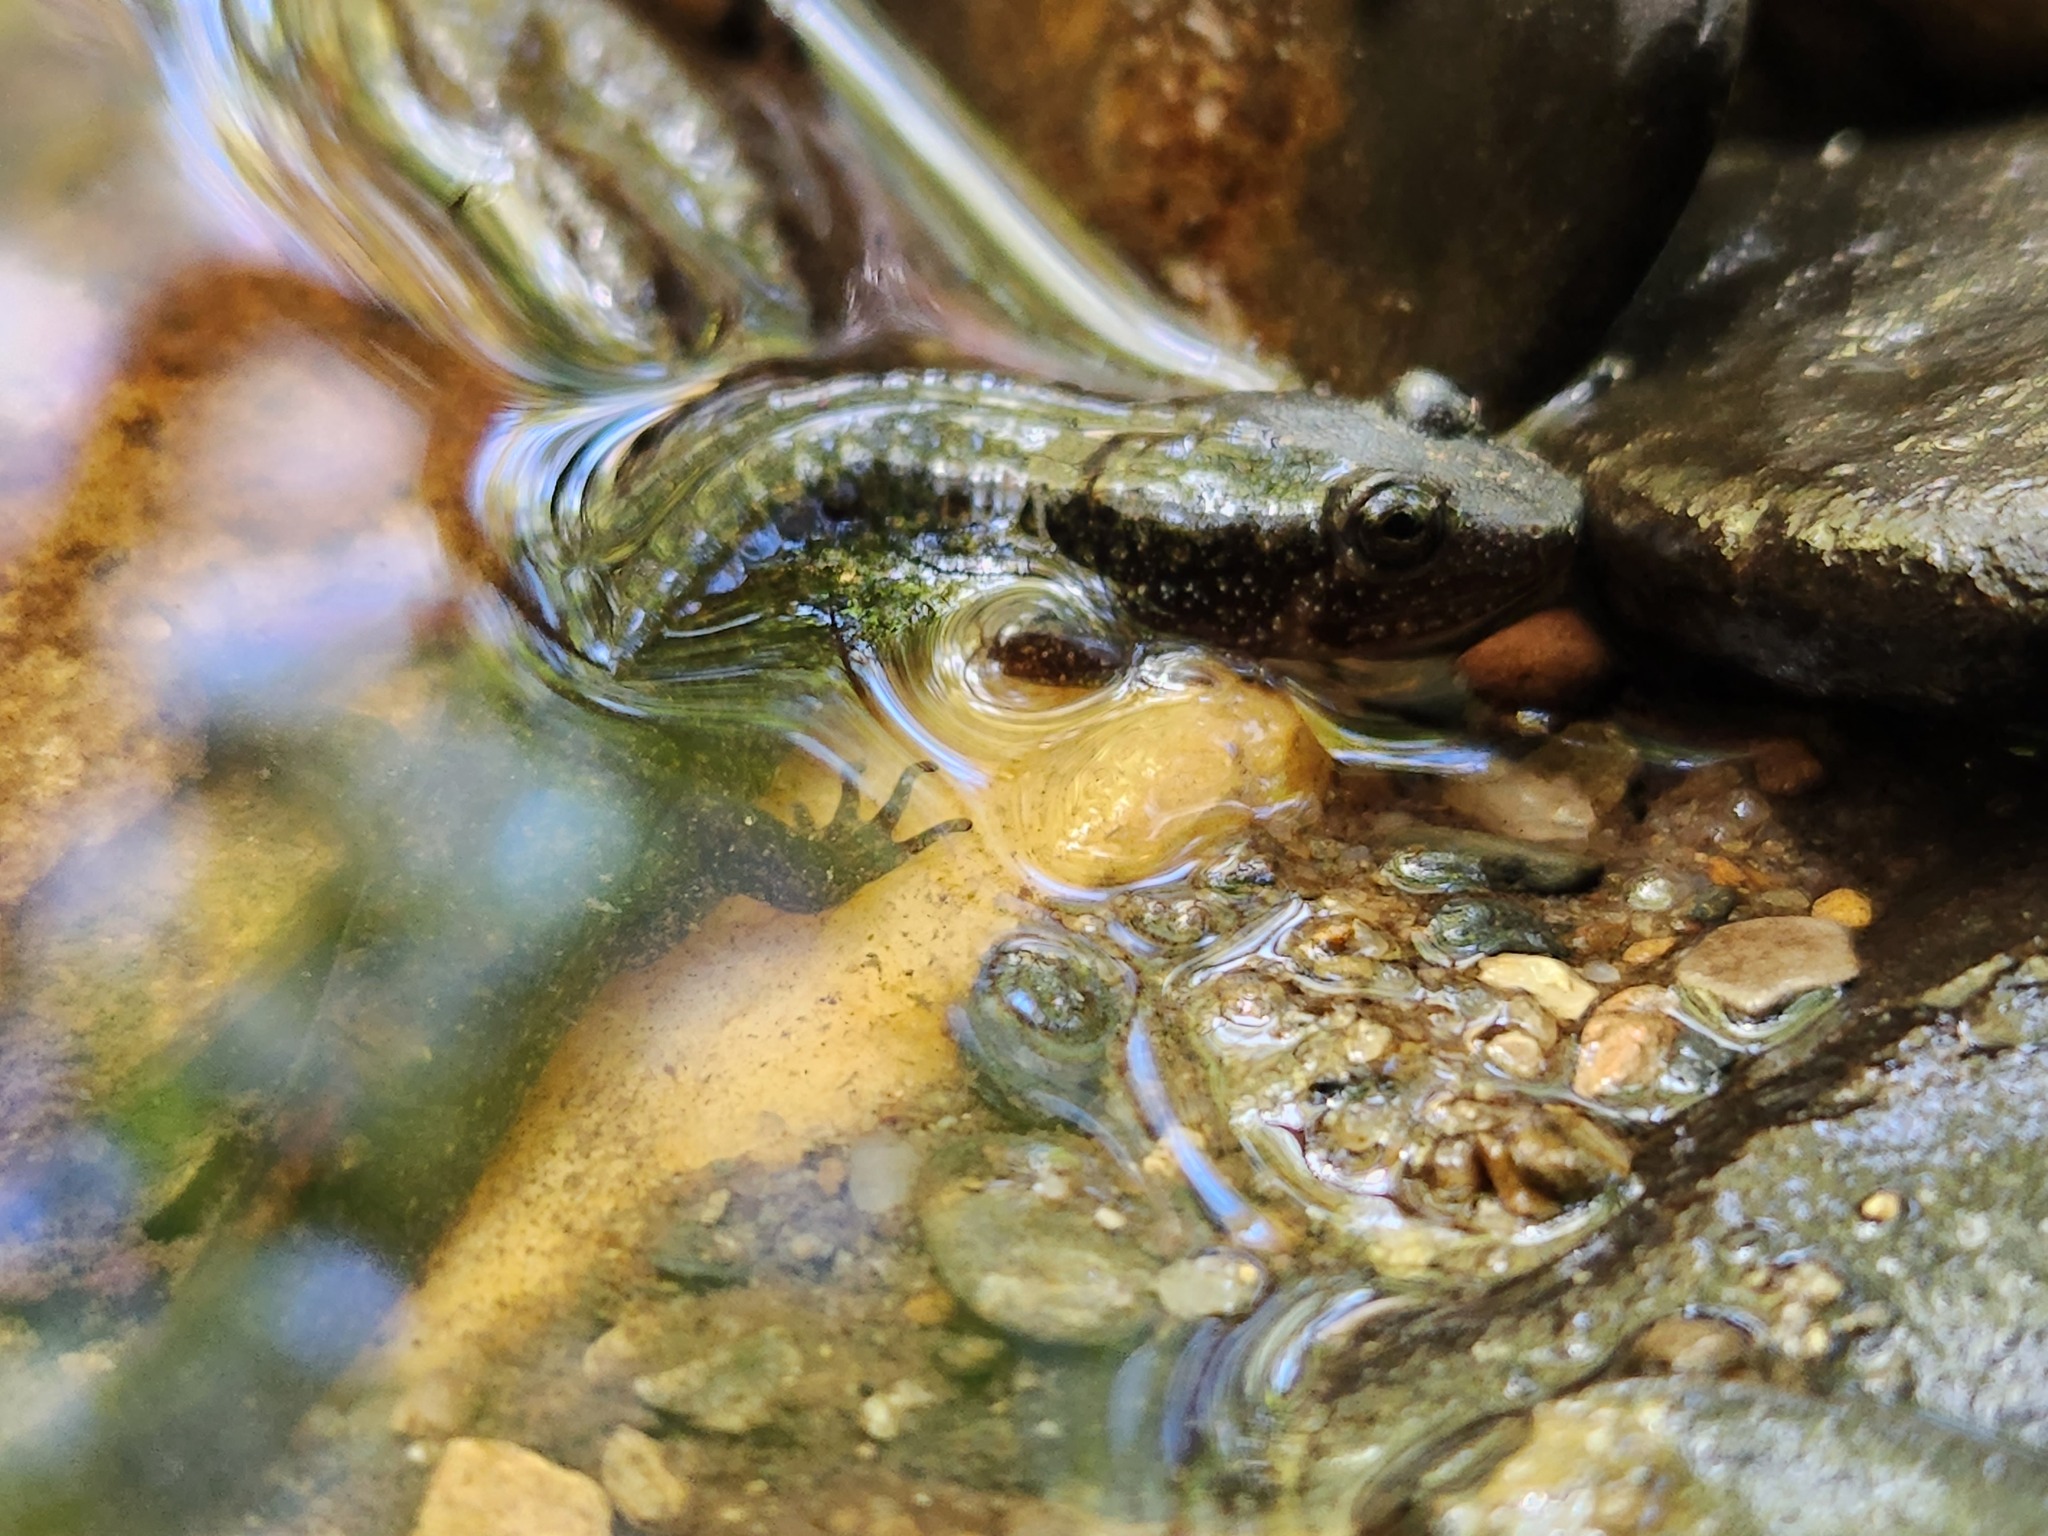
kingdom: Animalia
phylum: Chordata
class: Amphibia
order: Caudata
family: Plethodontidae
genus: Desmognathus
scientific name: Desmognathus
